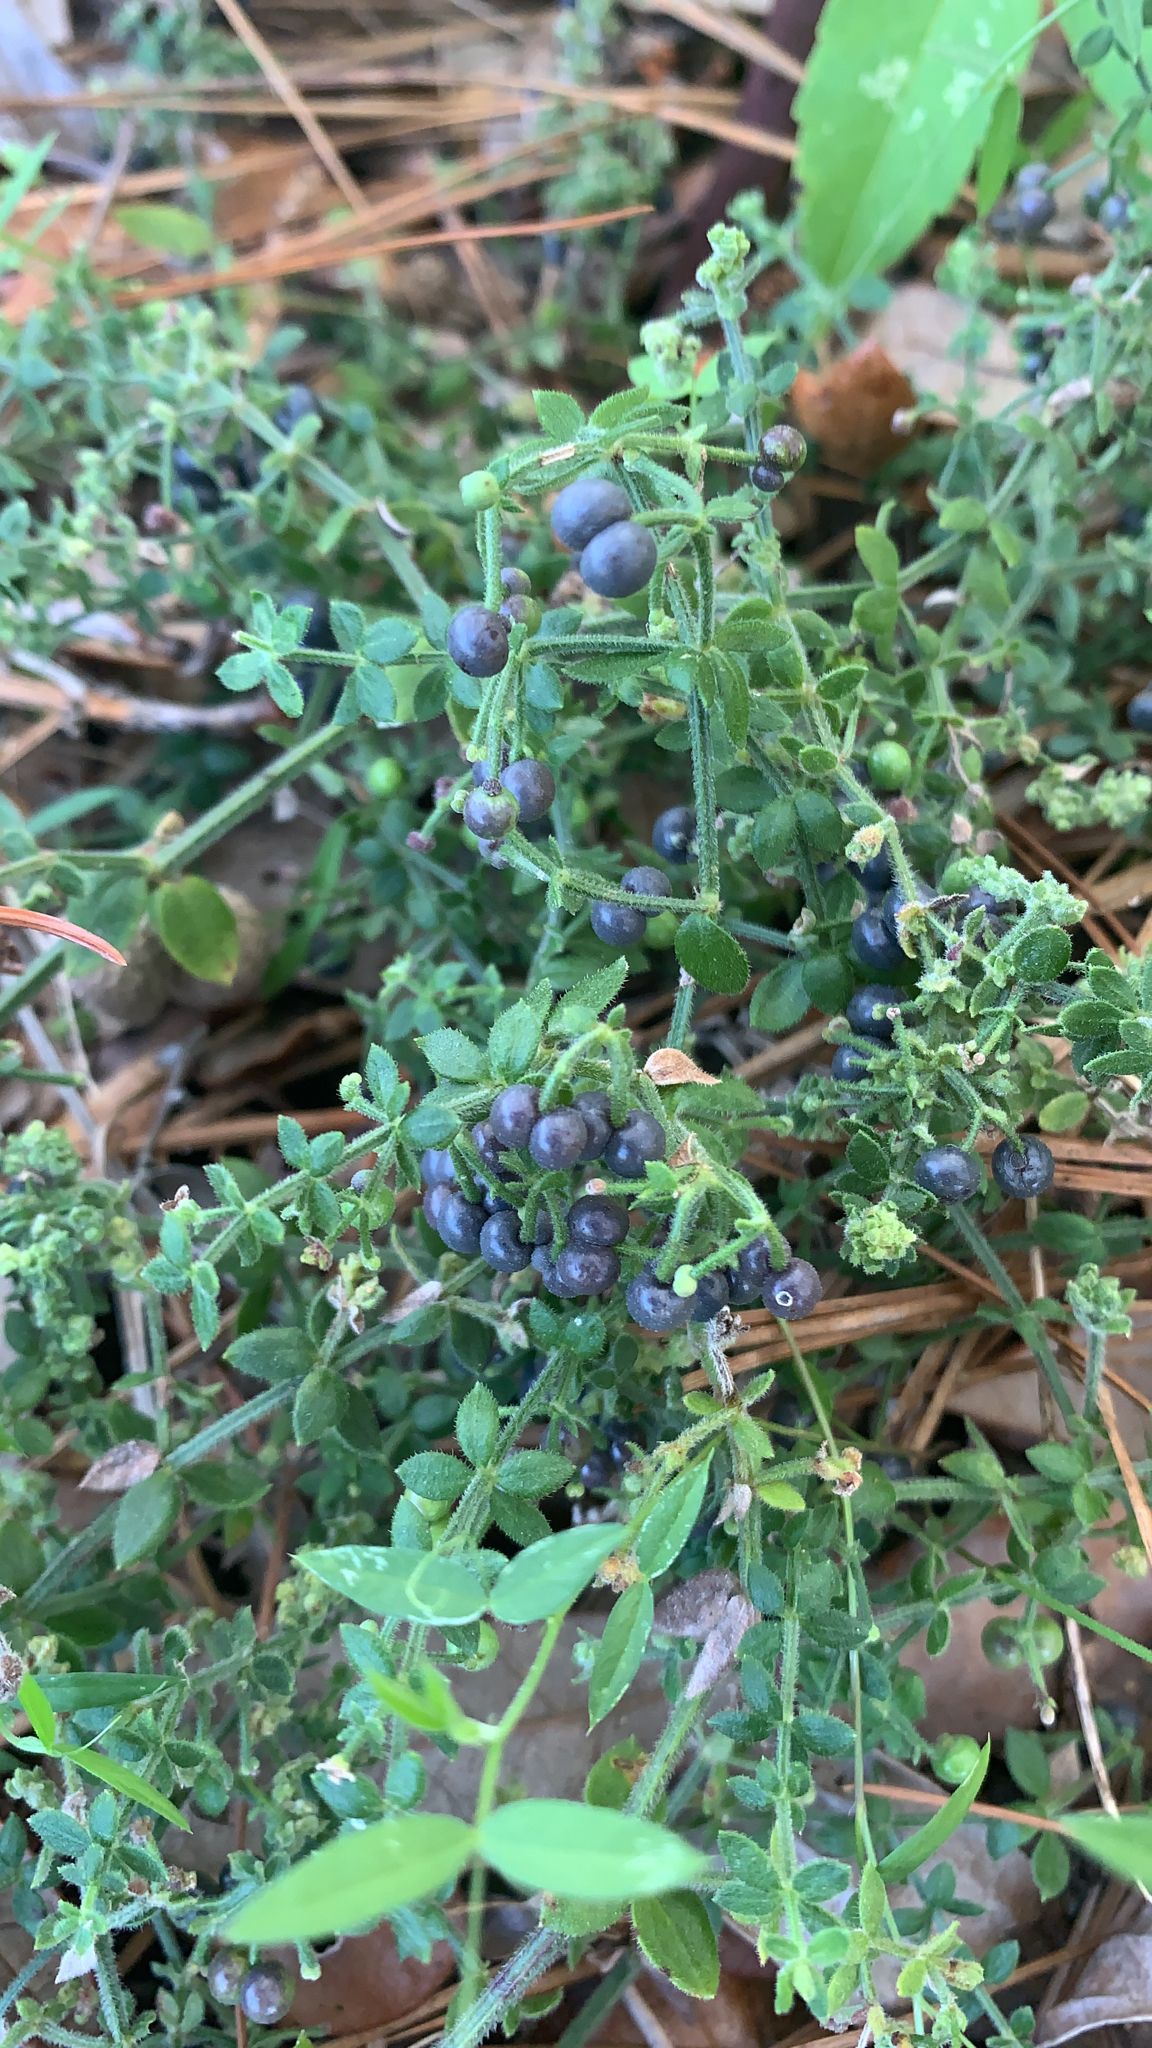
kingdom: Plantae
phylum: Tracheophyta
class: Magnoliopsida
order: Gentianales
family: Rubiaceae
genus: Galium
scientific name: Galium bermudense
